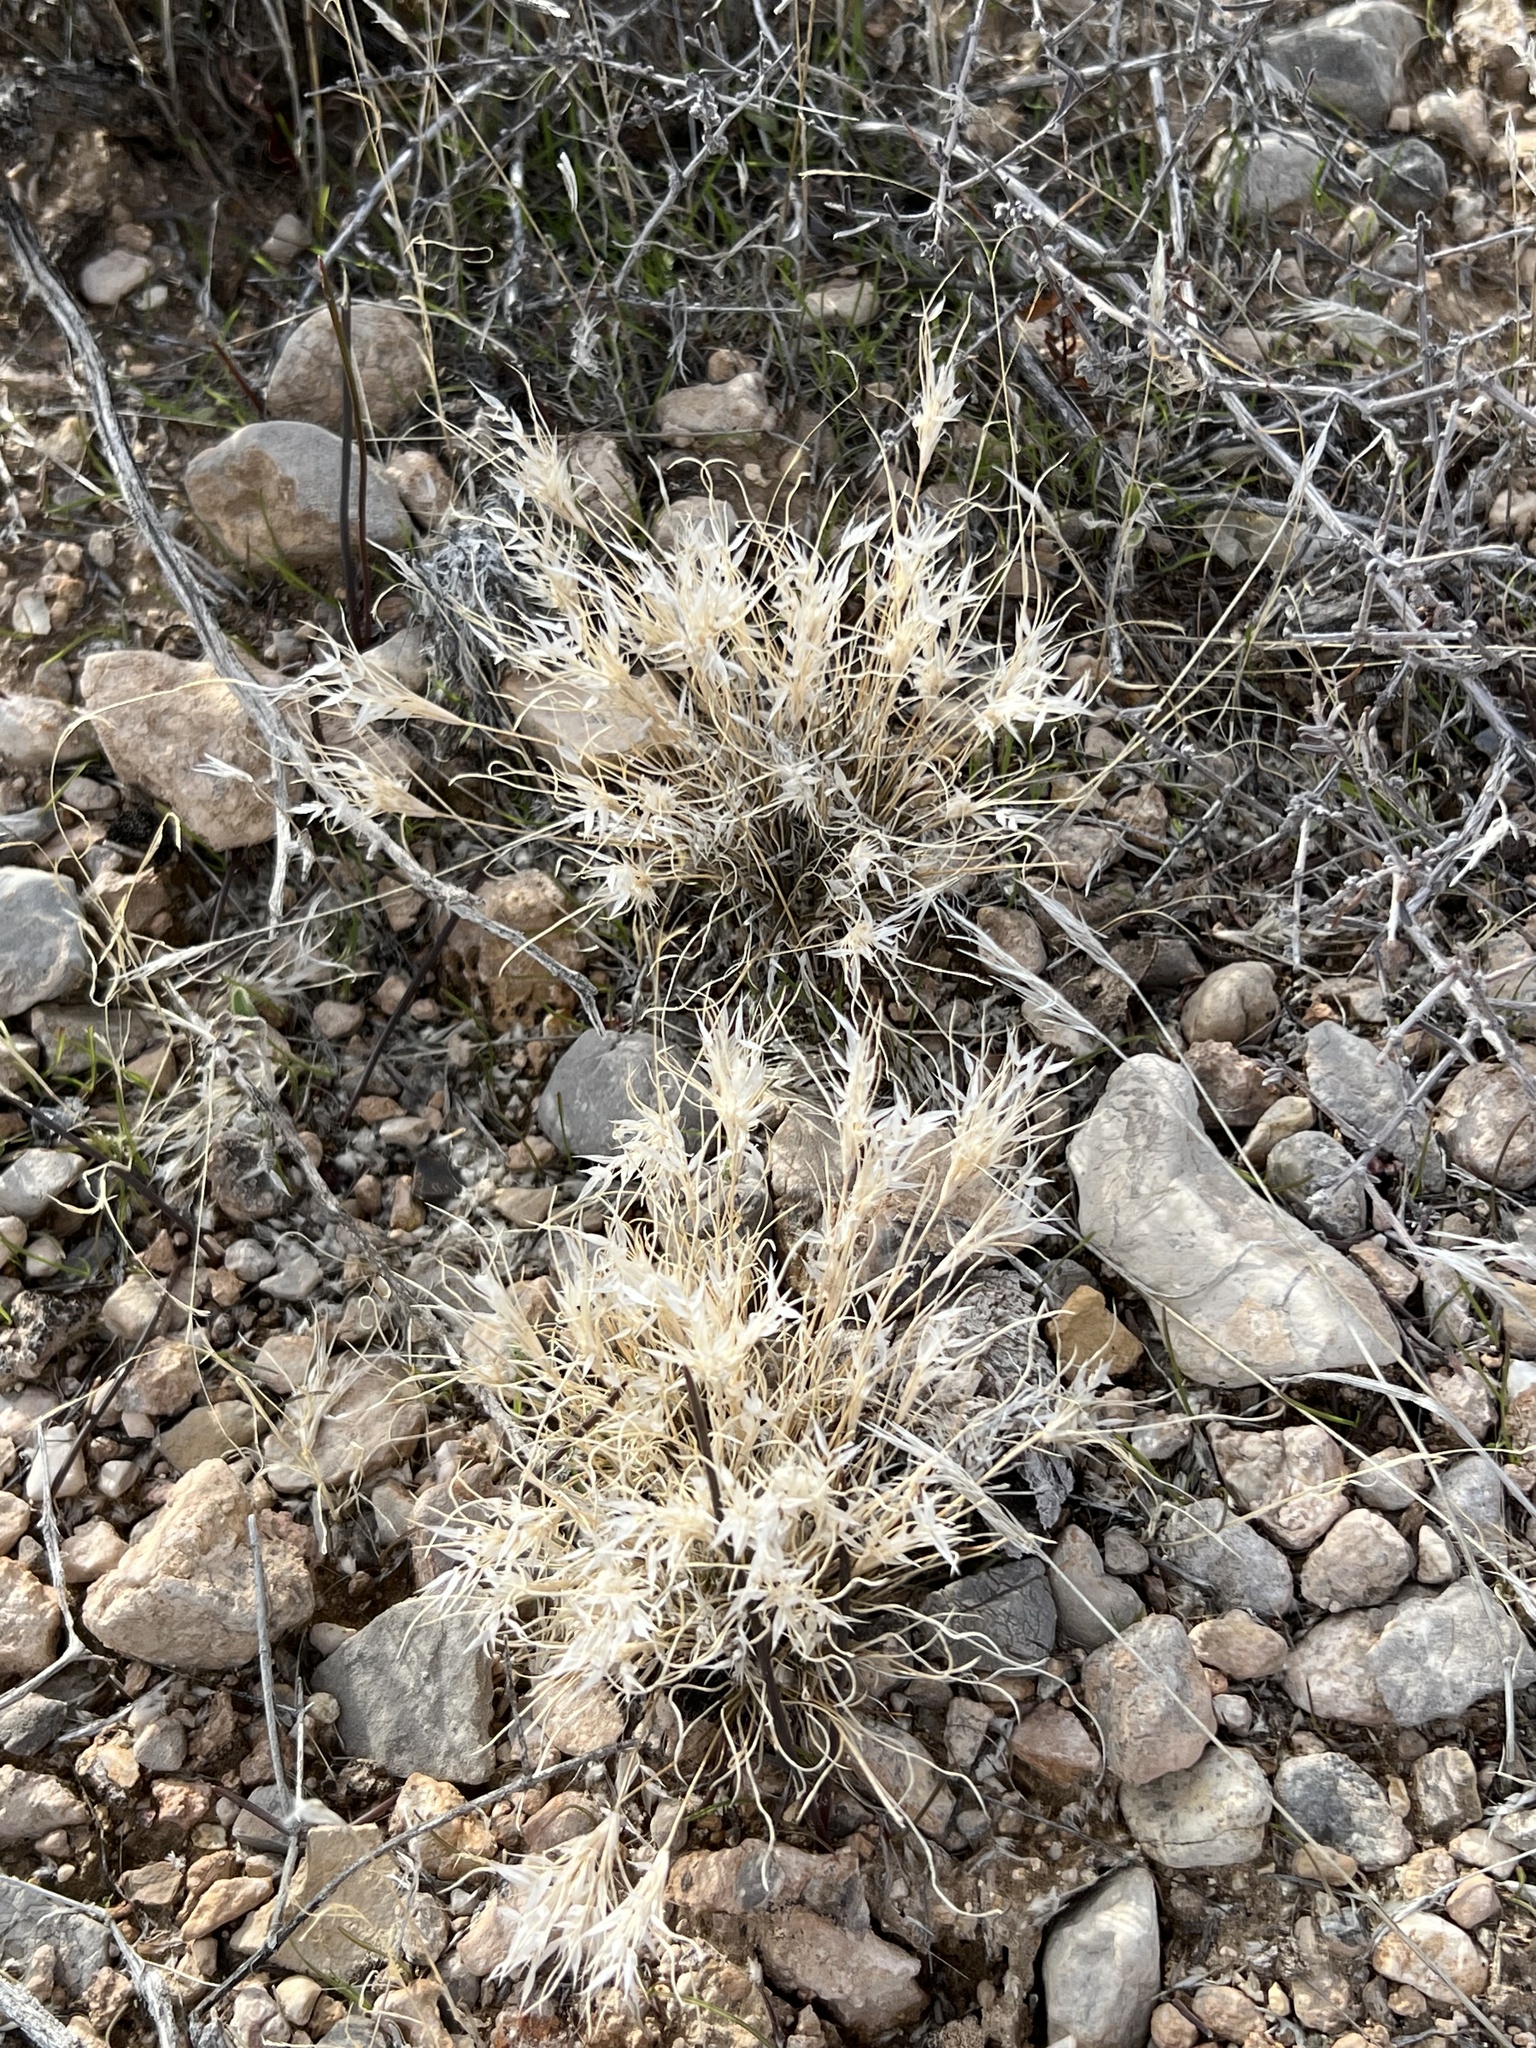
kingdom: Plantae
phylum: Tracheophyta
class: Liliopsida
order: Poales
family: Poaceae
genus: Dasyochloa
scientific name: Dasyochloa pulchella
